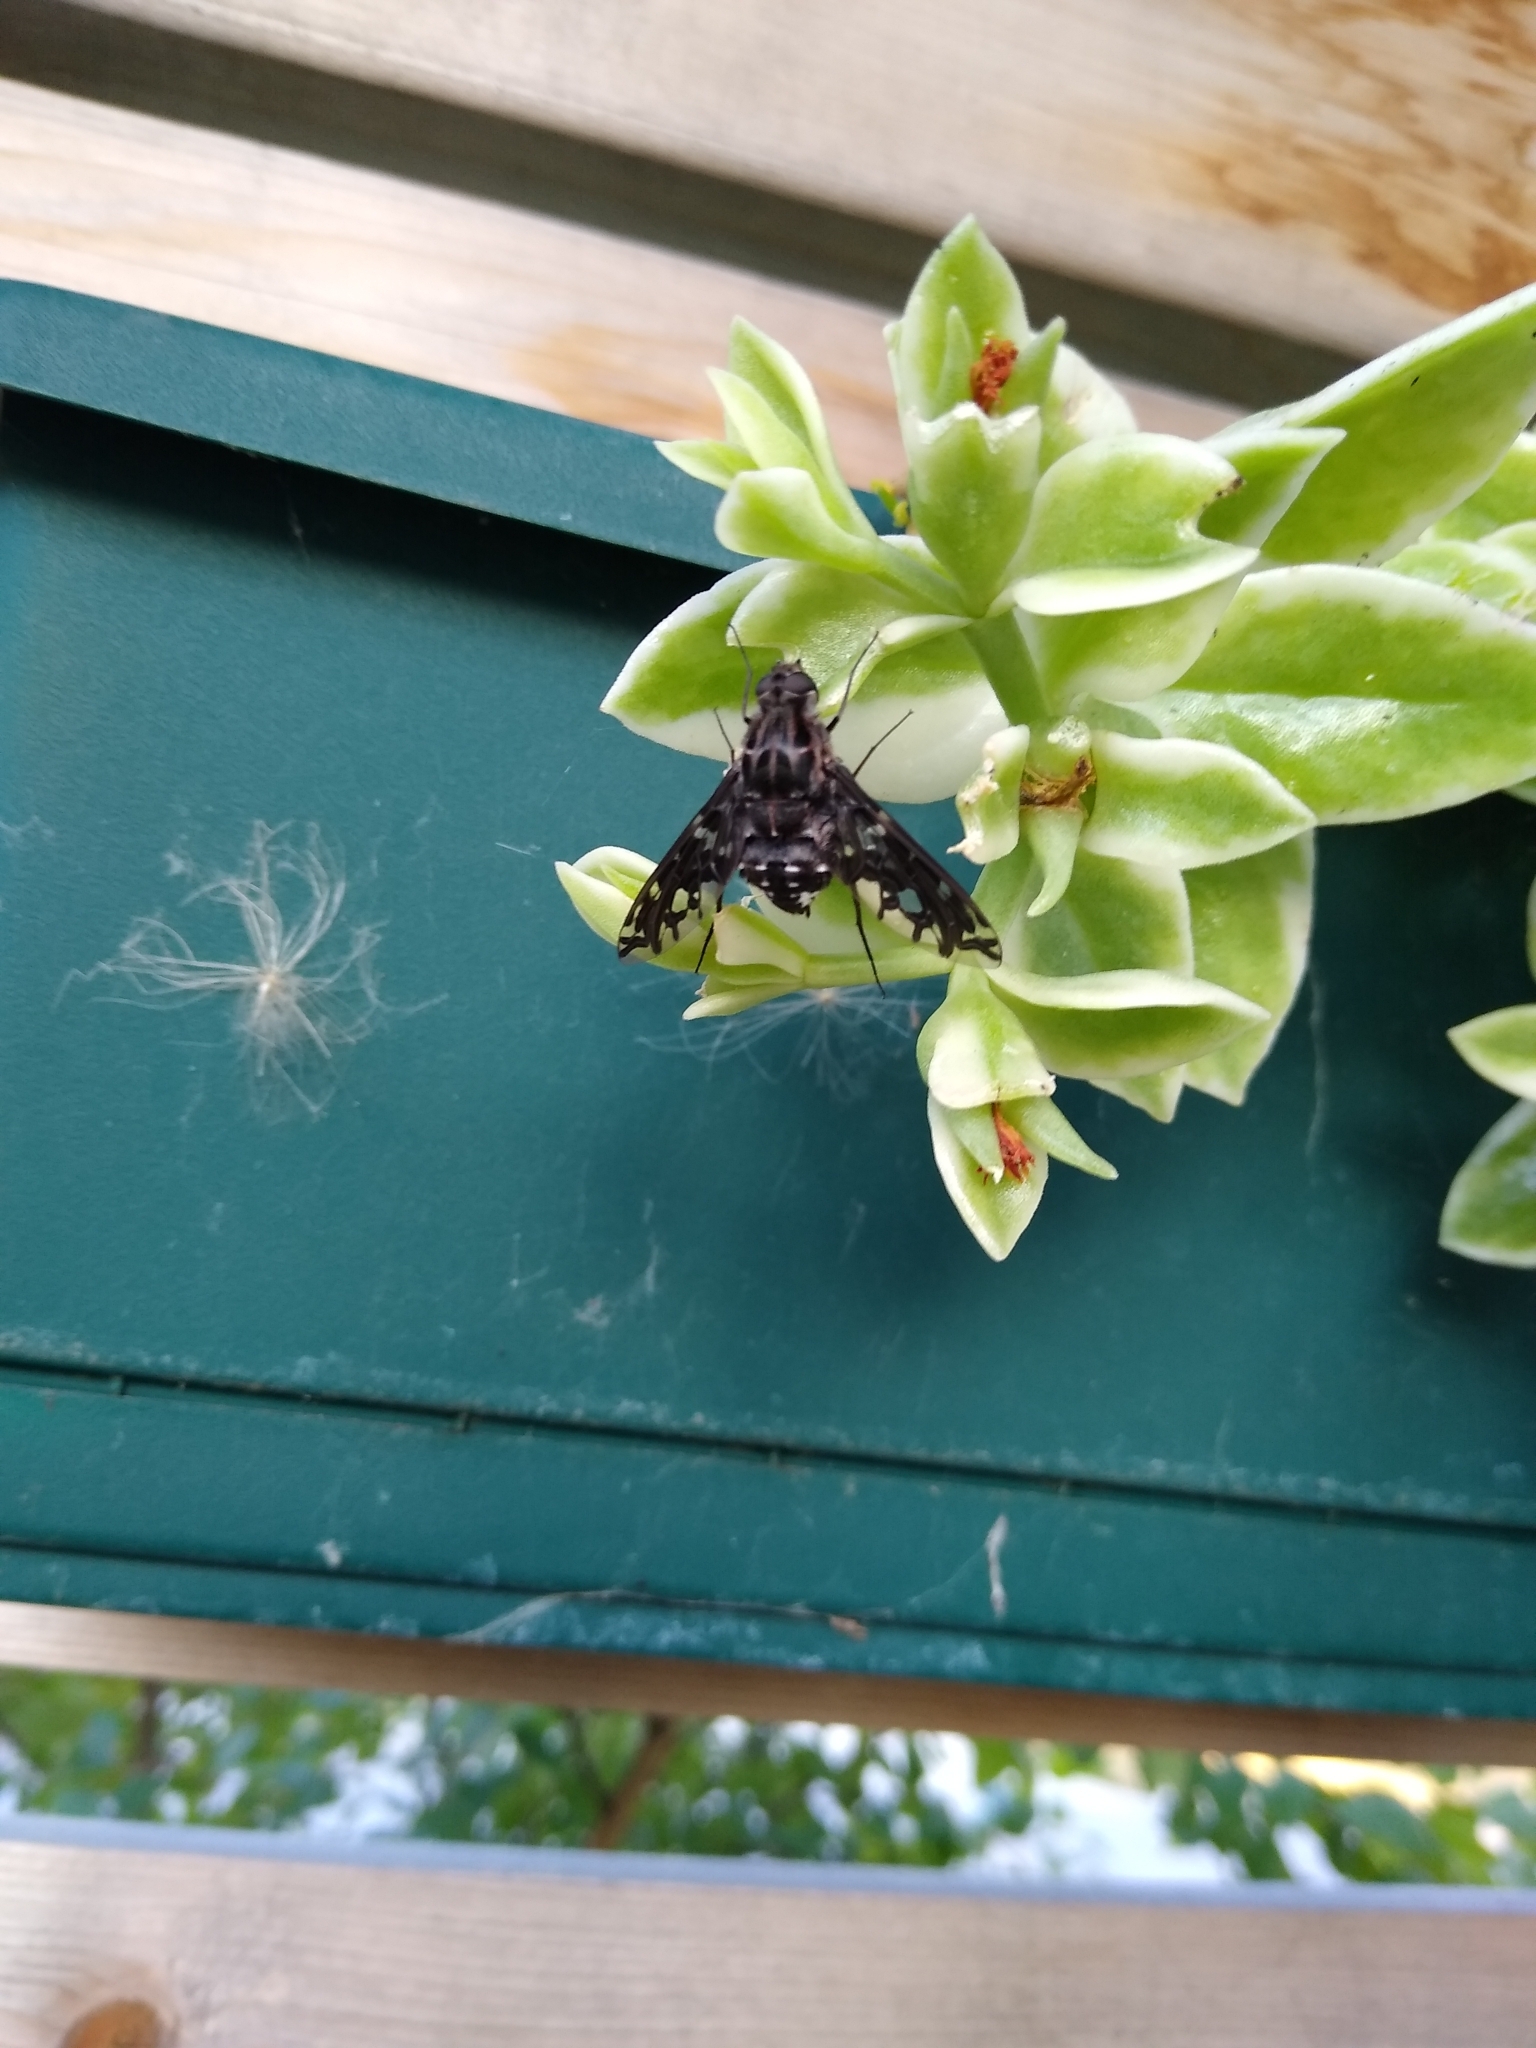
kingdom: Animalia
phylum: Arthropoda
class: Insecta
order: Diptera
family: Bombyliidae
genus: Xenox
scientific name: Xenox tigrinus
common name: Tiger bee fly
